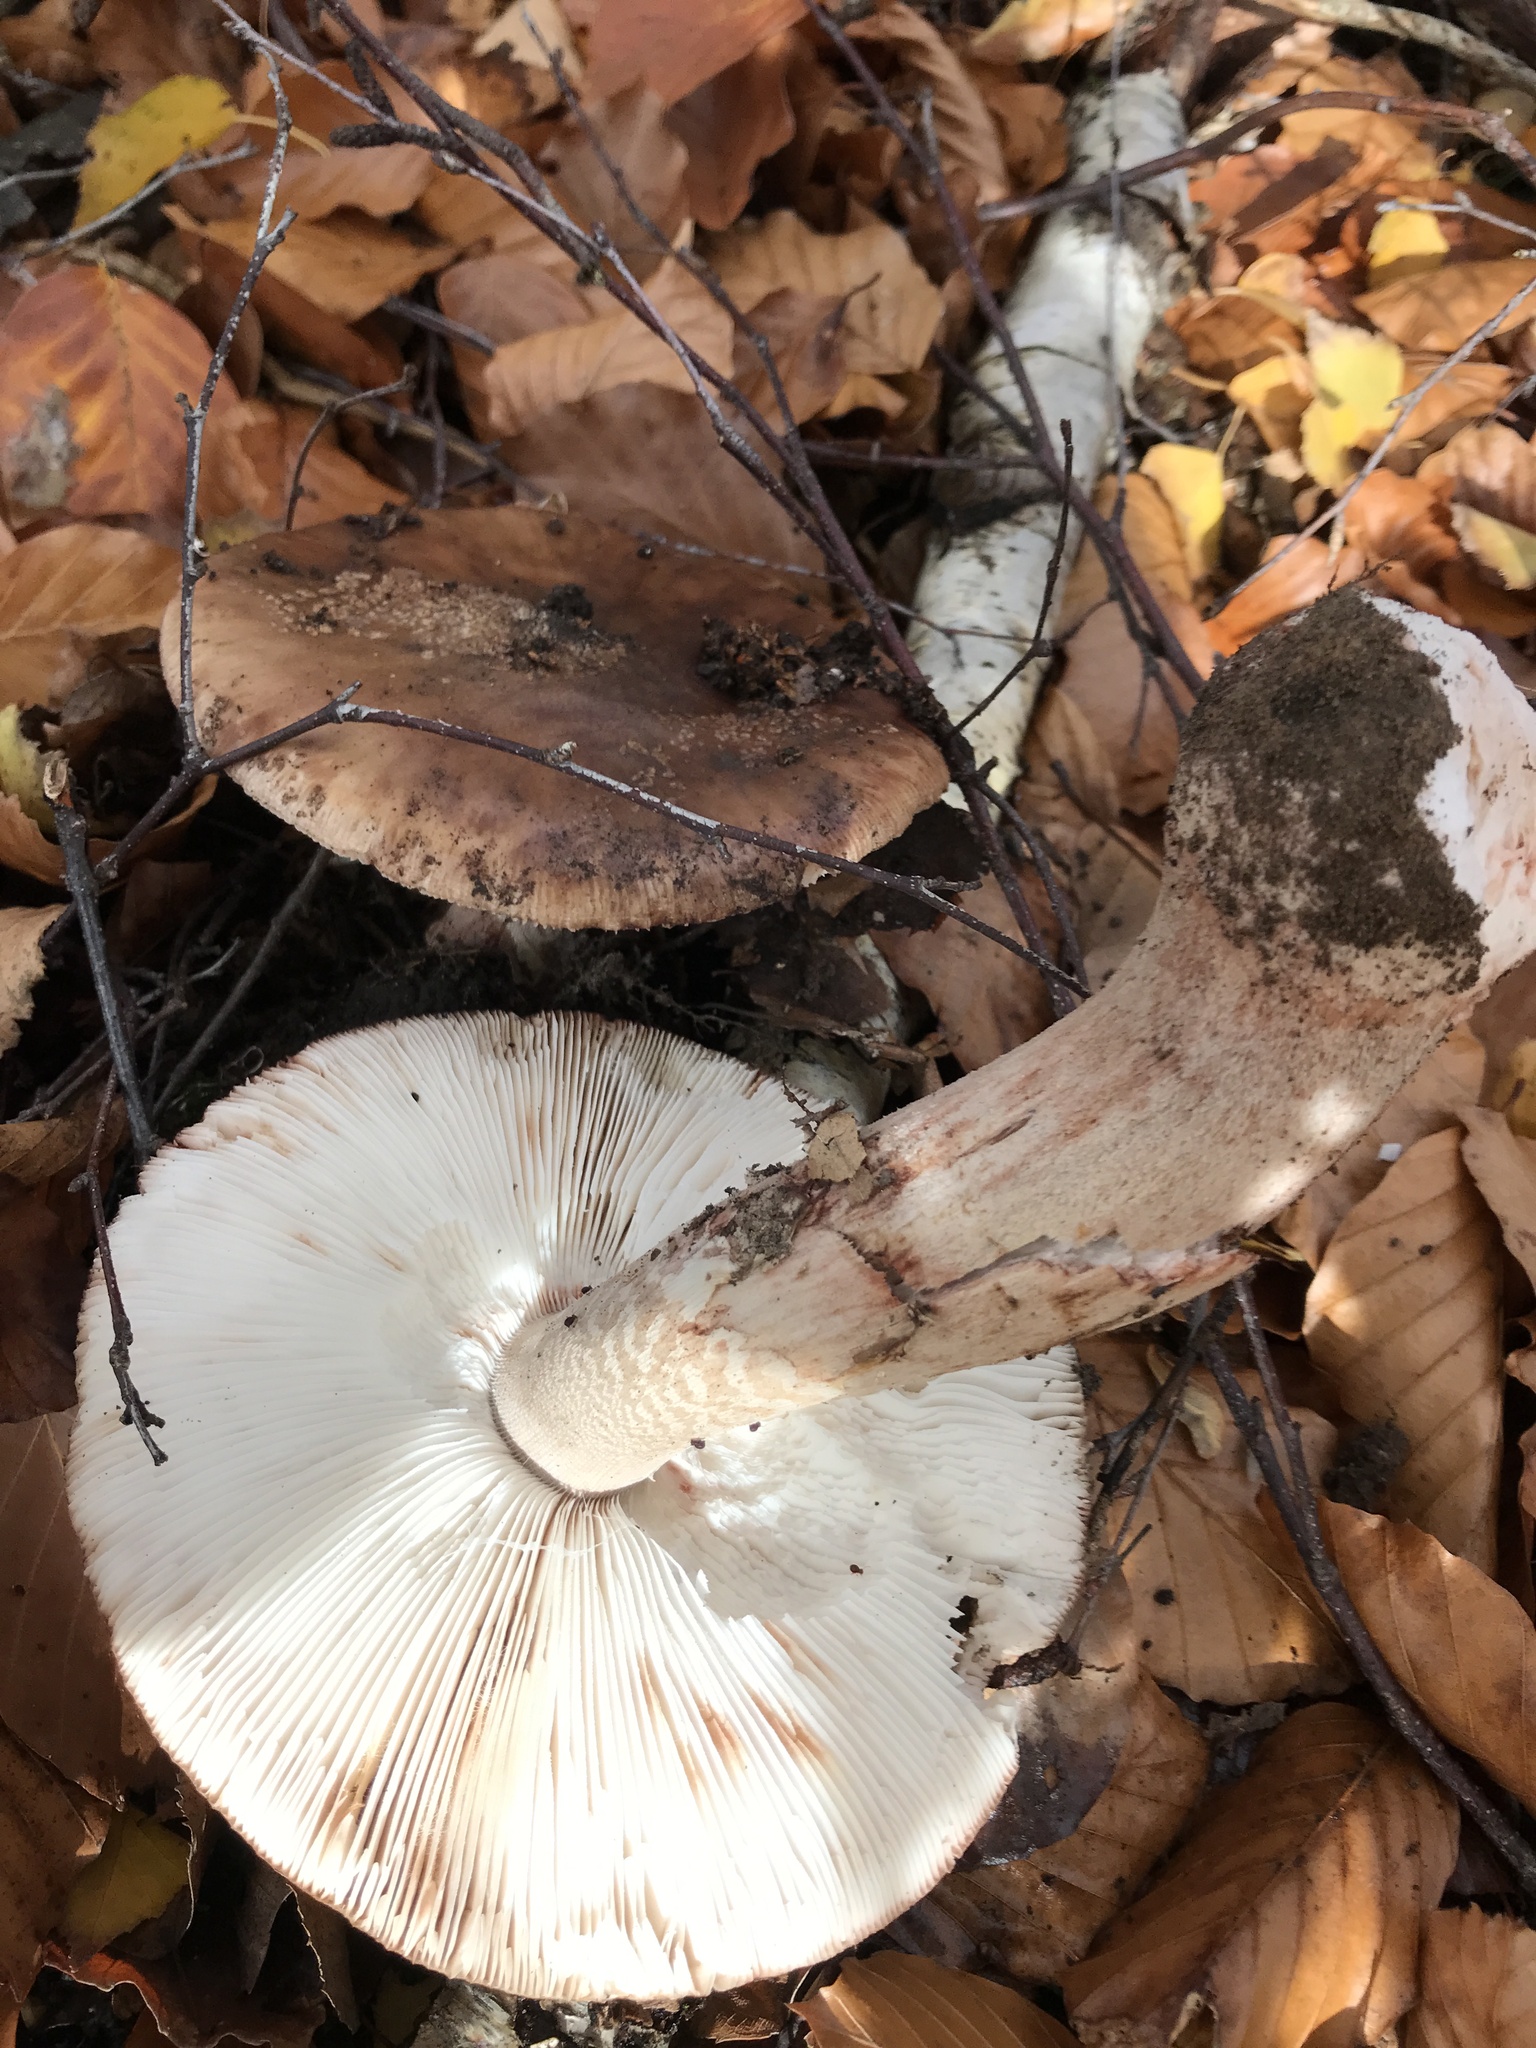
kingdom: Fungi
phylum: Basidiomycota
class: Agaricomycetes
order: Agaricales
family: Amanitaceae
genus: Amanita
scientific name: Amanita rubescens
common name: Blusher
